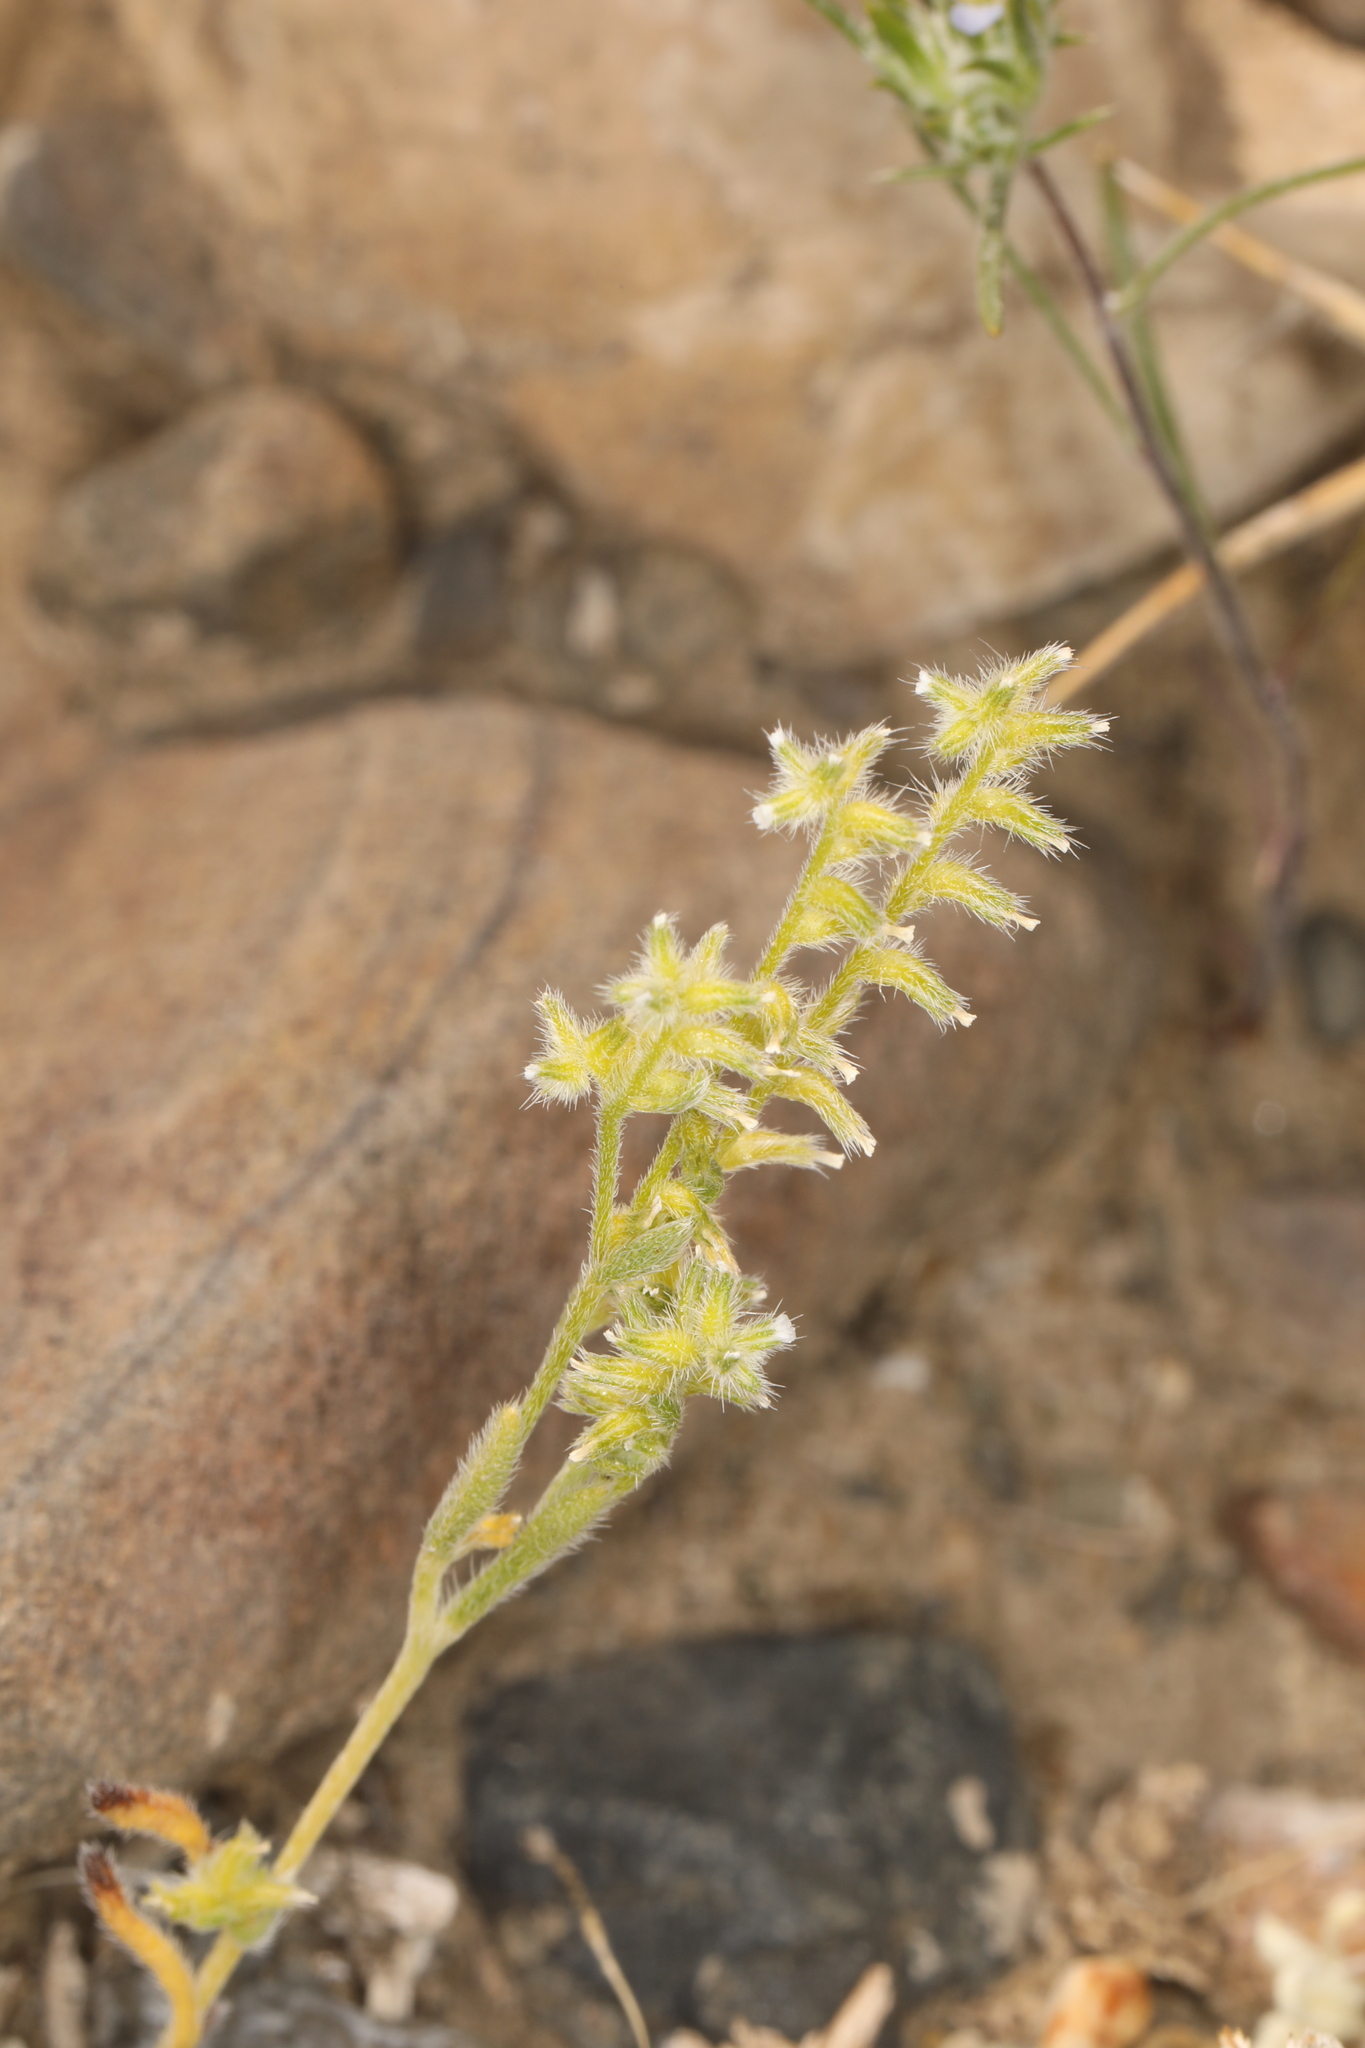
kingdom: Plantae
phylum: Tracheophyta
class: Magnoliopsida
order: Boraginales
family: Boraginaceae
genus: Cryptantha
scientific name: Cryptantha recurvata
